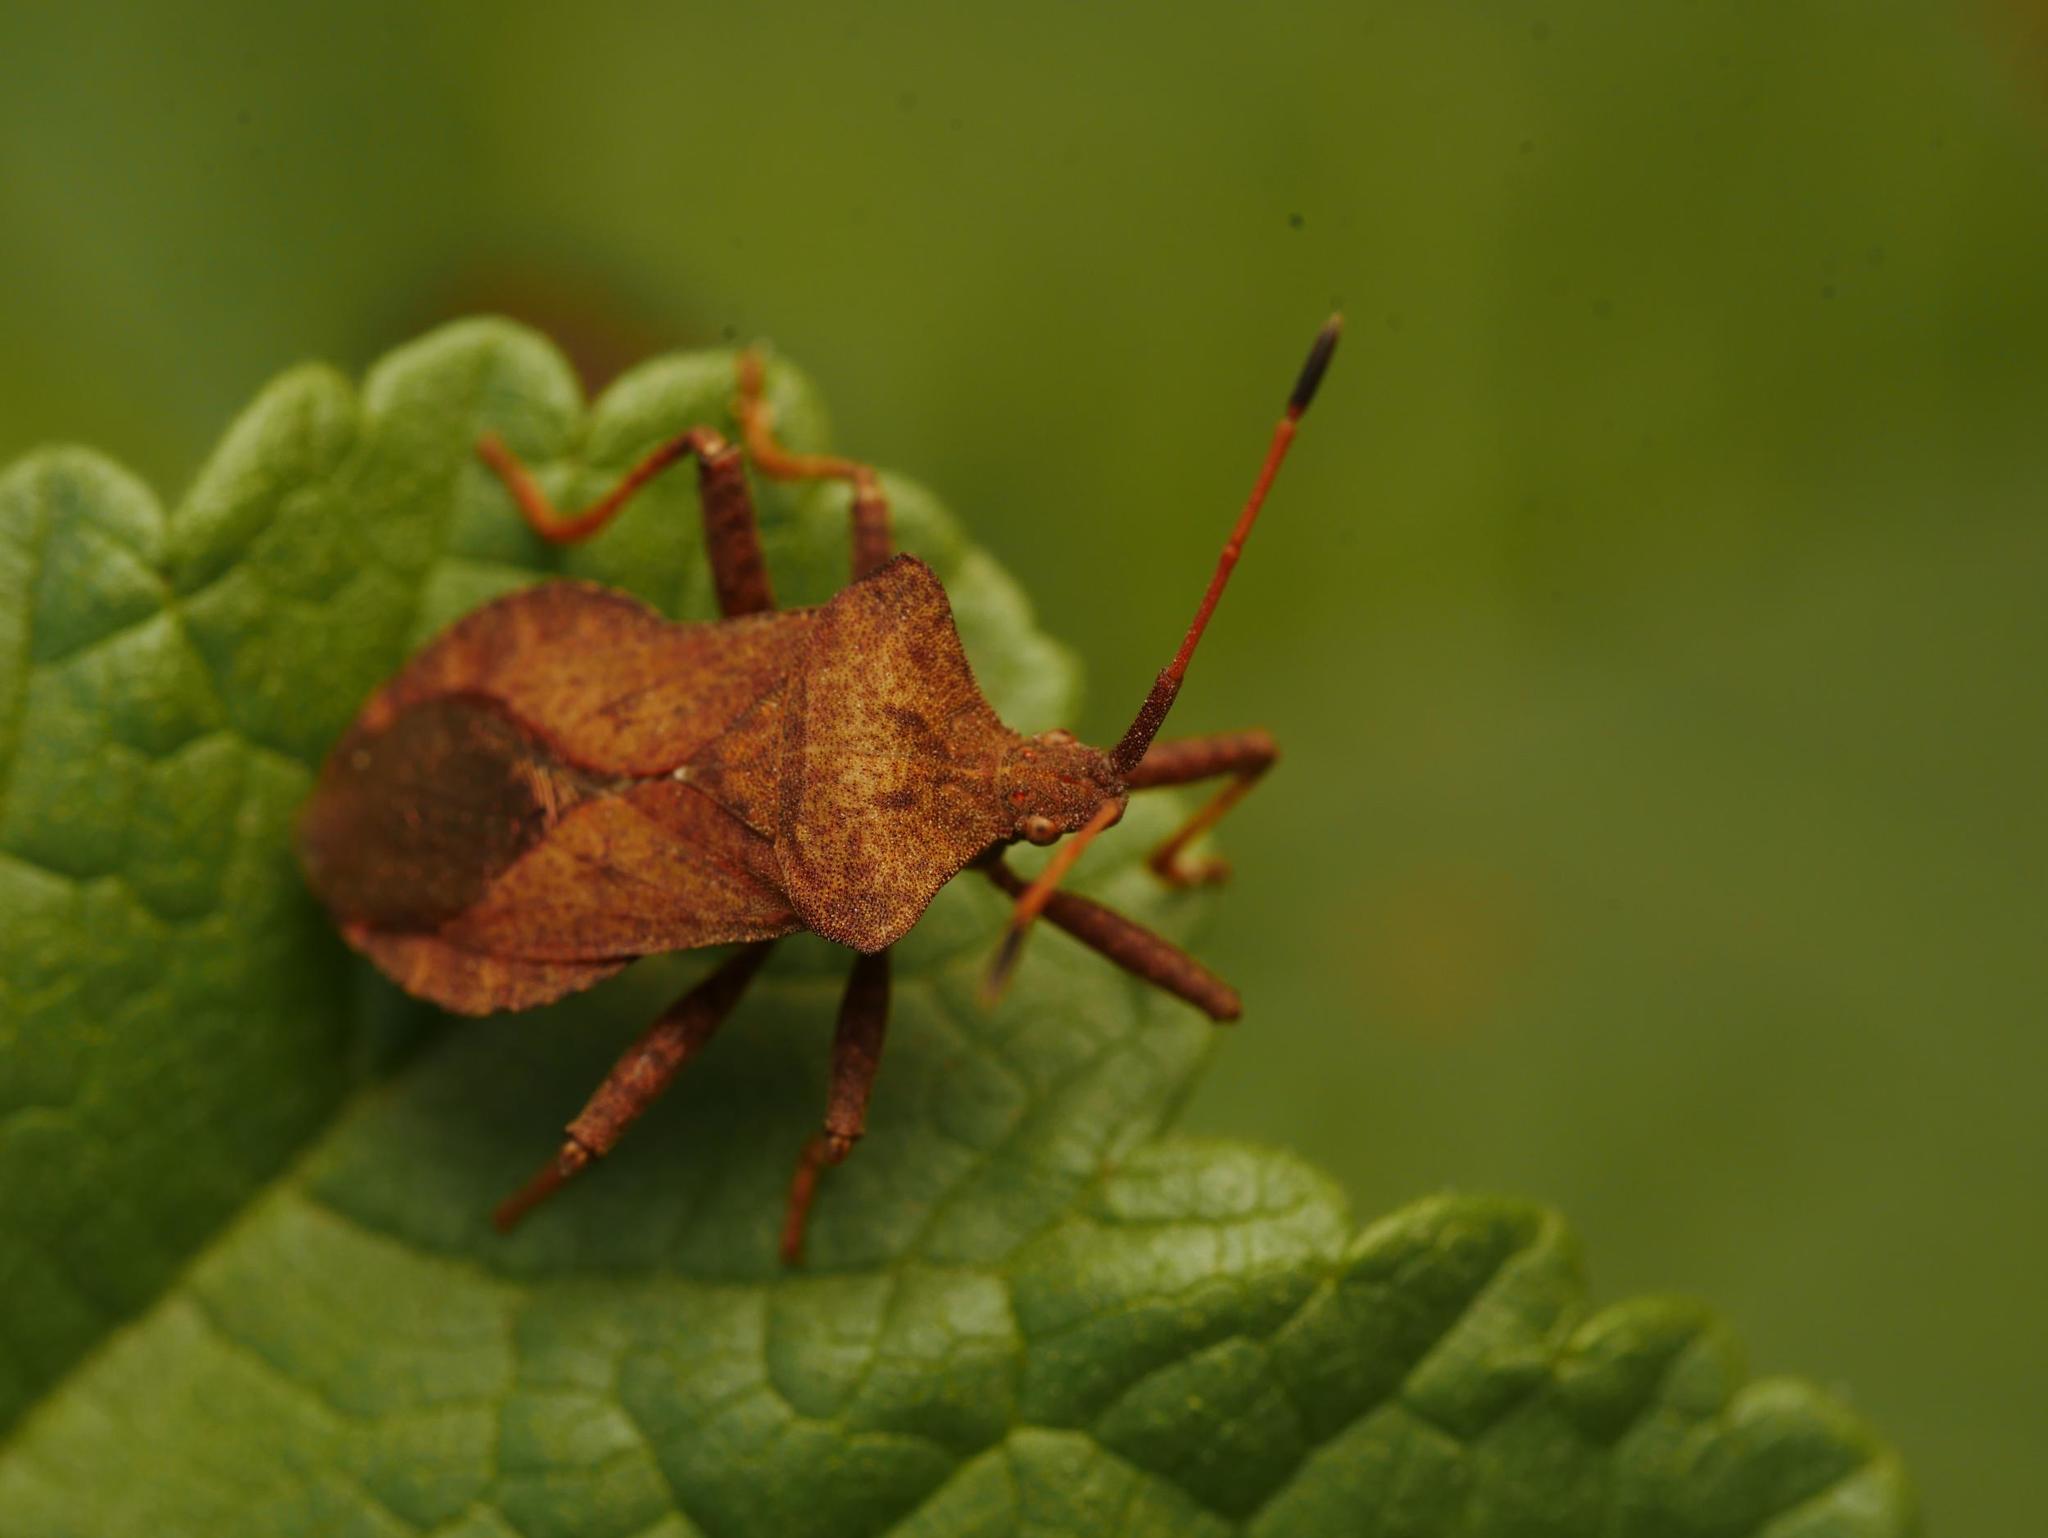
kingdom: Animalia
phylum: Arthropoda
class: Insecta
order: Hemiptera
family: Coreidae
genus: Coreus
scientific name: Coreus marginatus
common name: Dock bug
